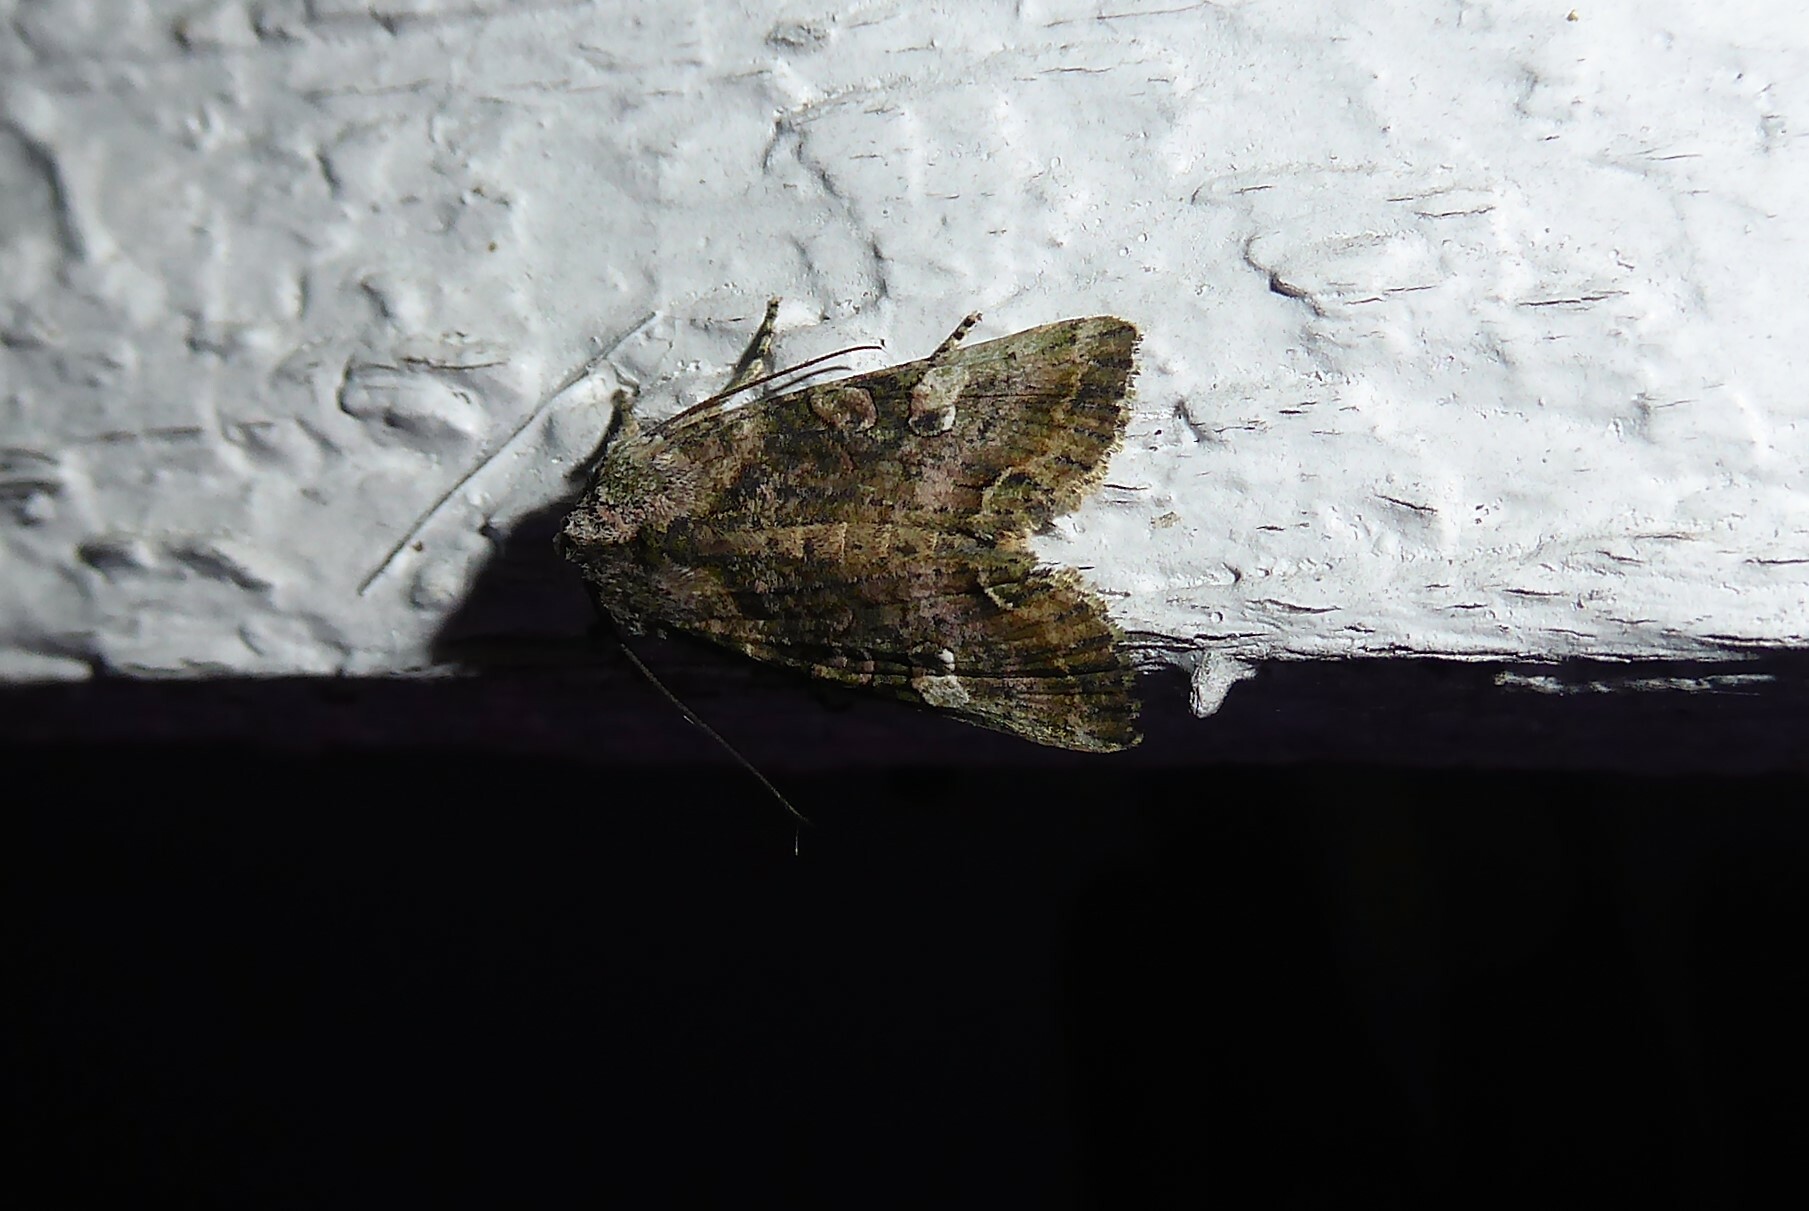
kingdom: Animalia
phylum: Arthropoda
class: Insecta
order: Lepidoptera
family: Noctuidae
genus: Meterana
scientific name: Meterana levis
